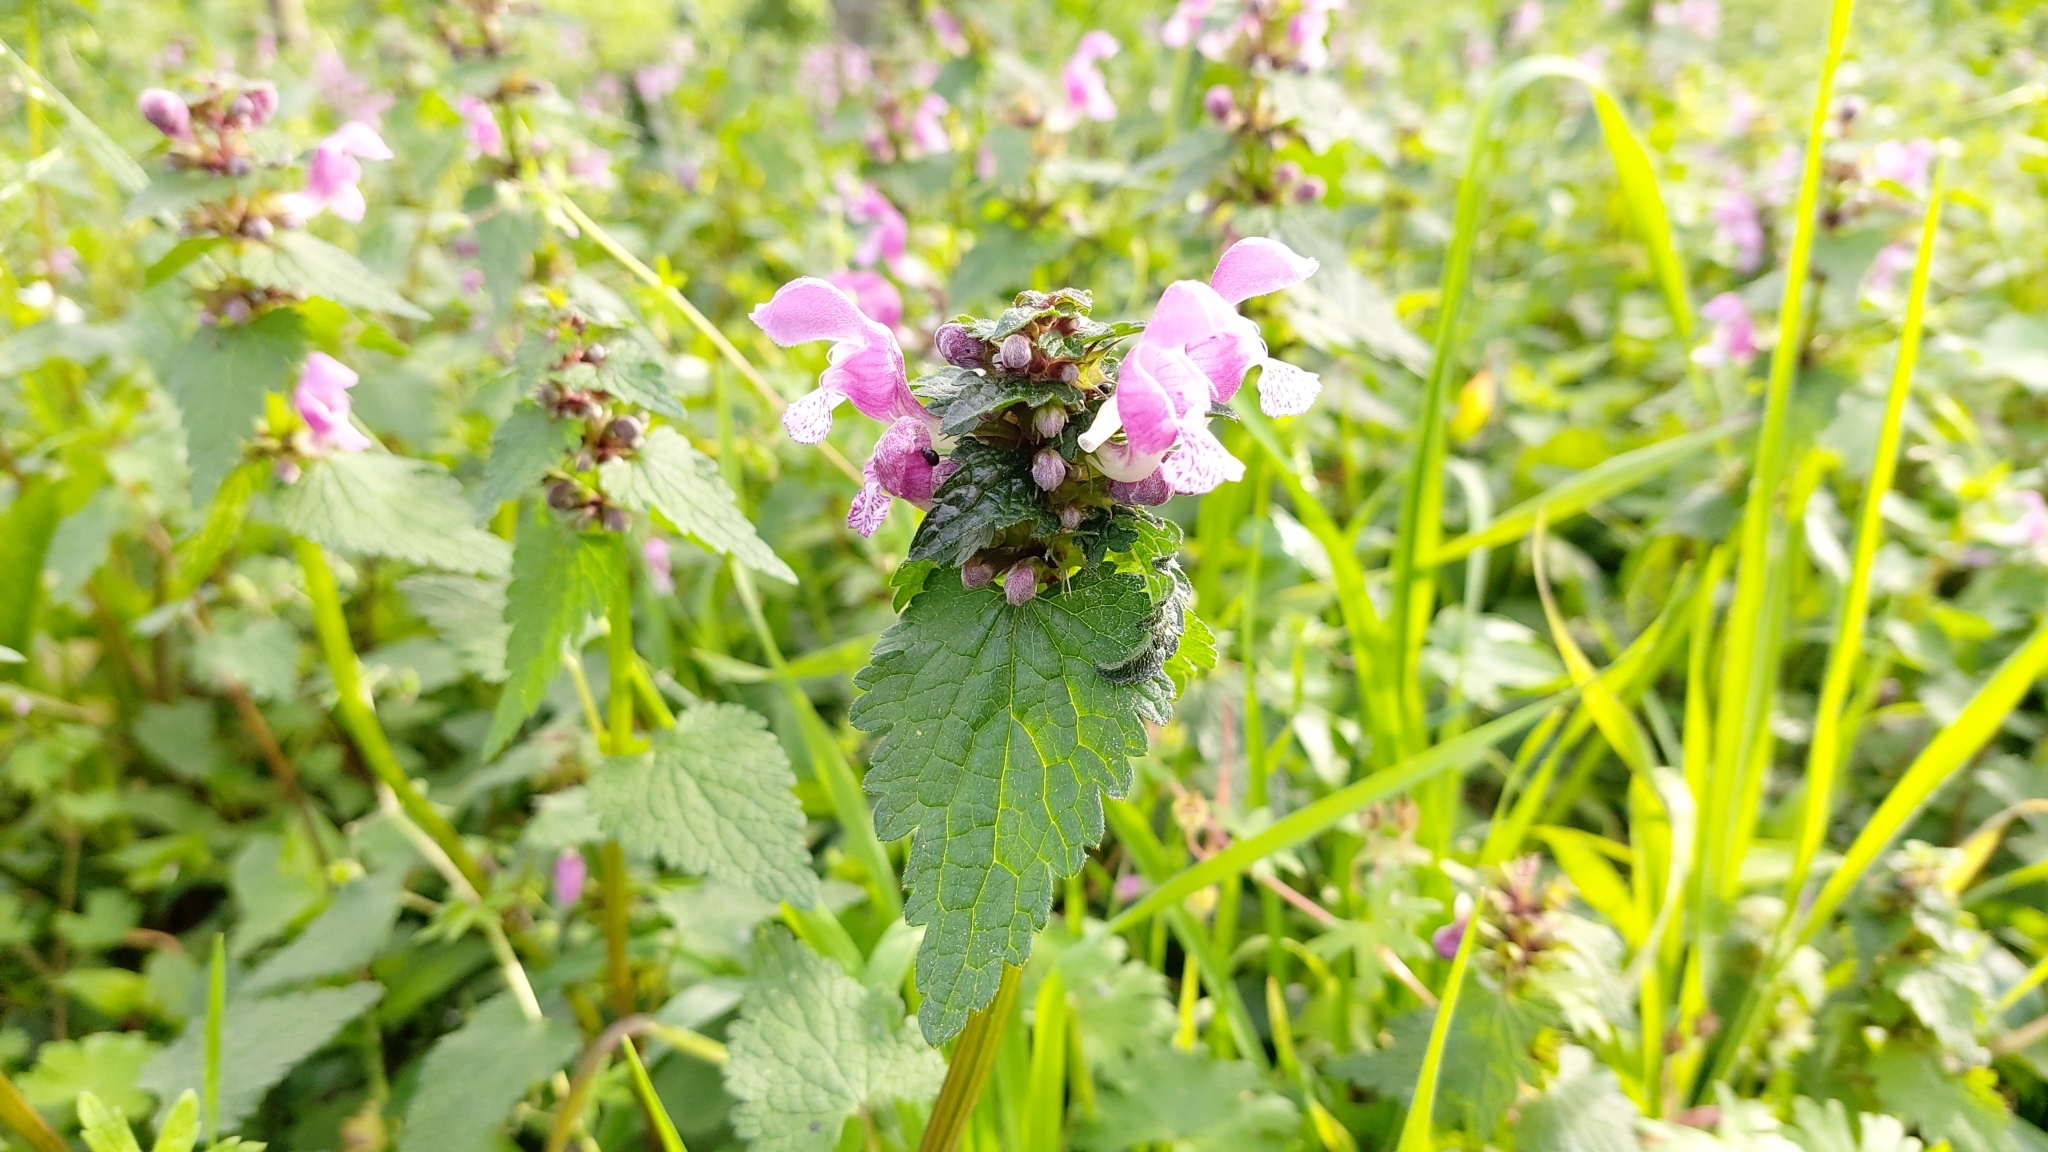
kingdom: Plantae
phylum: Tracheophyta
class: Magnoliopsida
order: Lamiales
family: Lamiaceae
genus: Lamium
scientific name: Lamium maculatum
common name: Spotted dead-nettle
